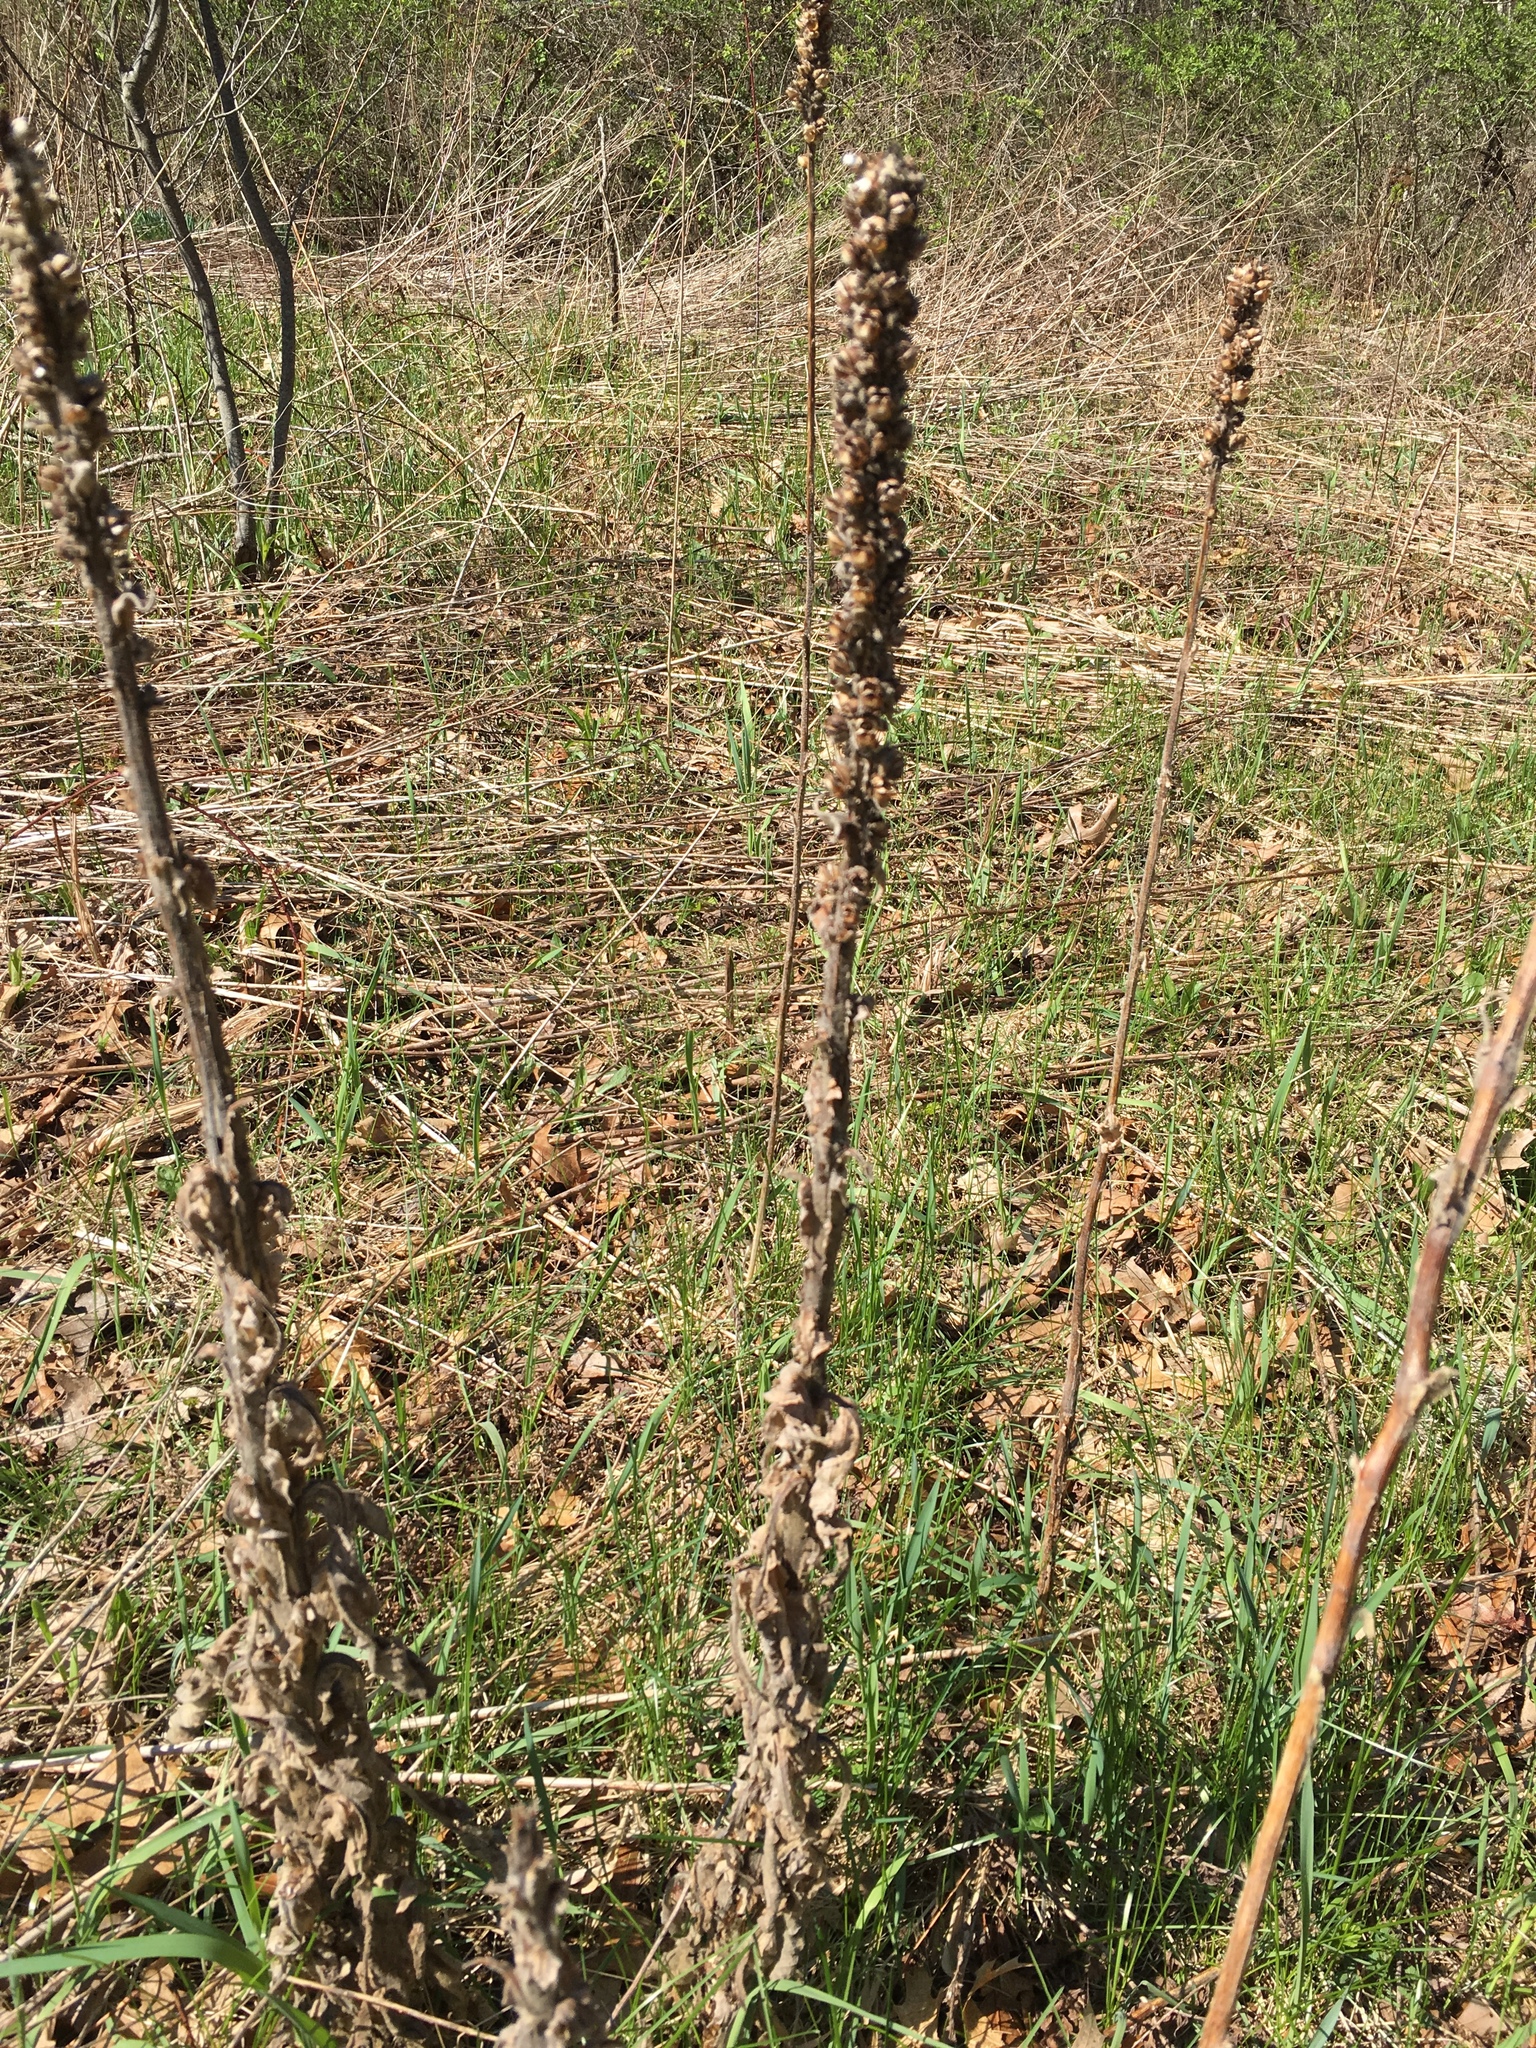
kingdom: Plantae
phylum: Tracheophyta
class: Magnoliopsida
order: Lamiales
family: Scrophulariaceae
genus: Verbascum
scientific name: Verbascum thapsus
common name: Common mullein
